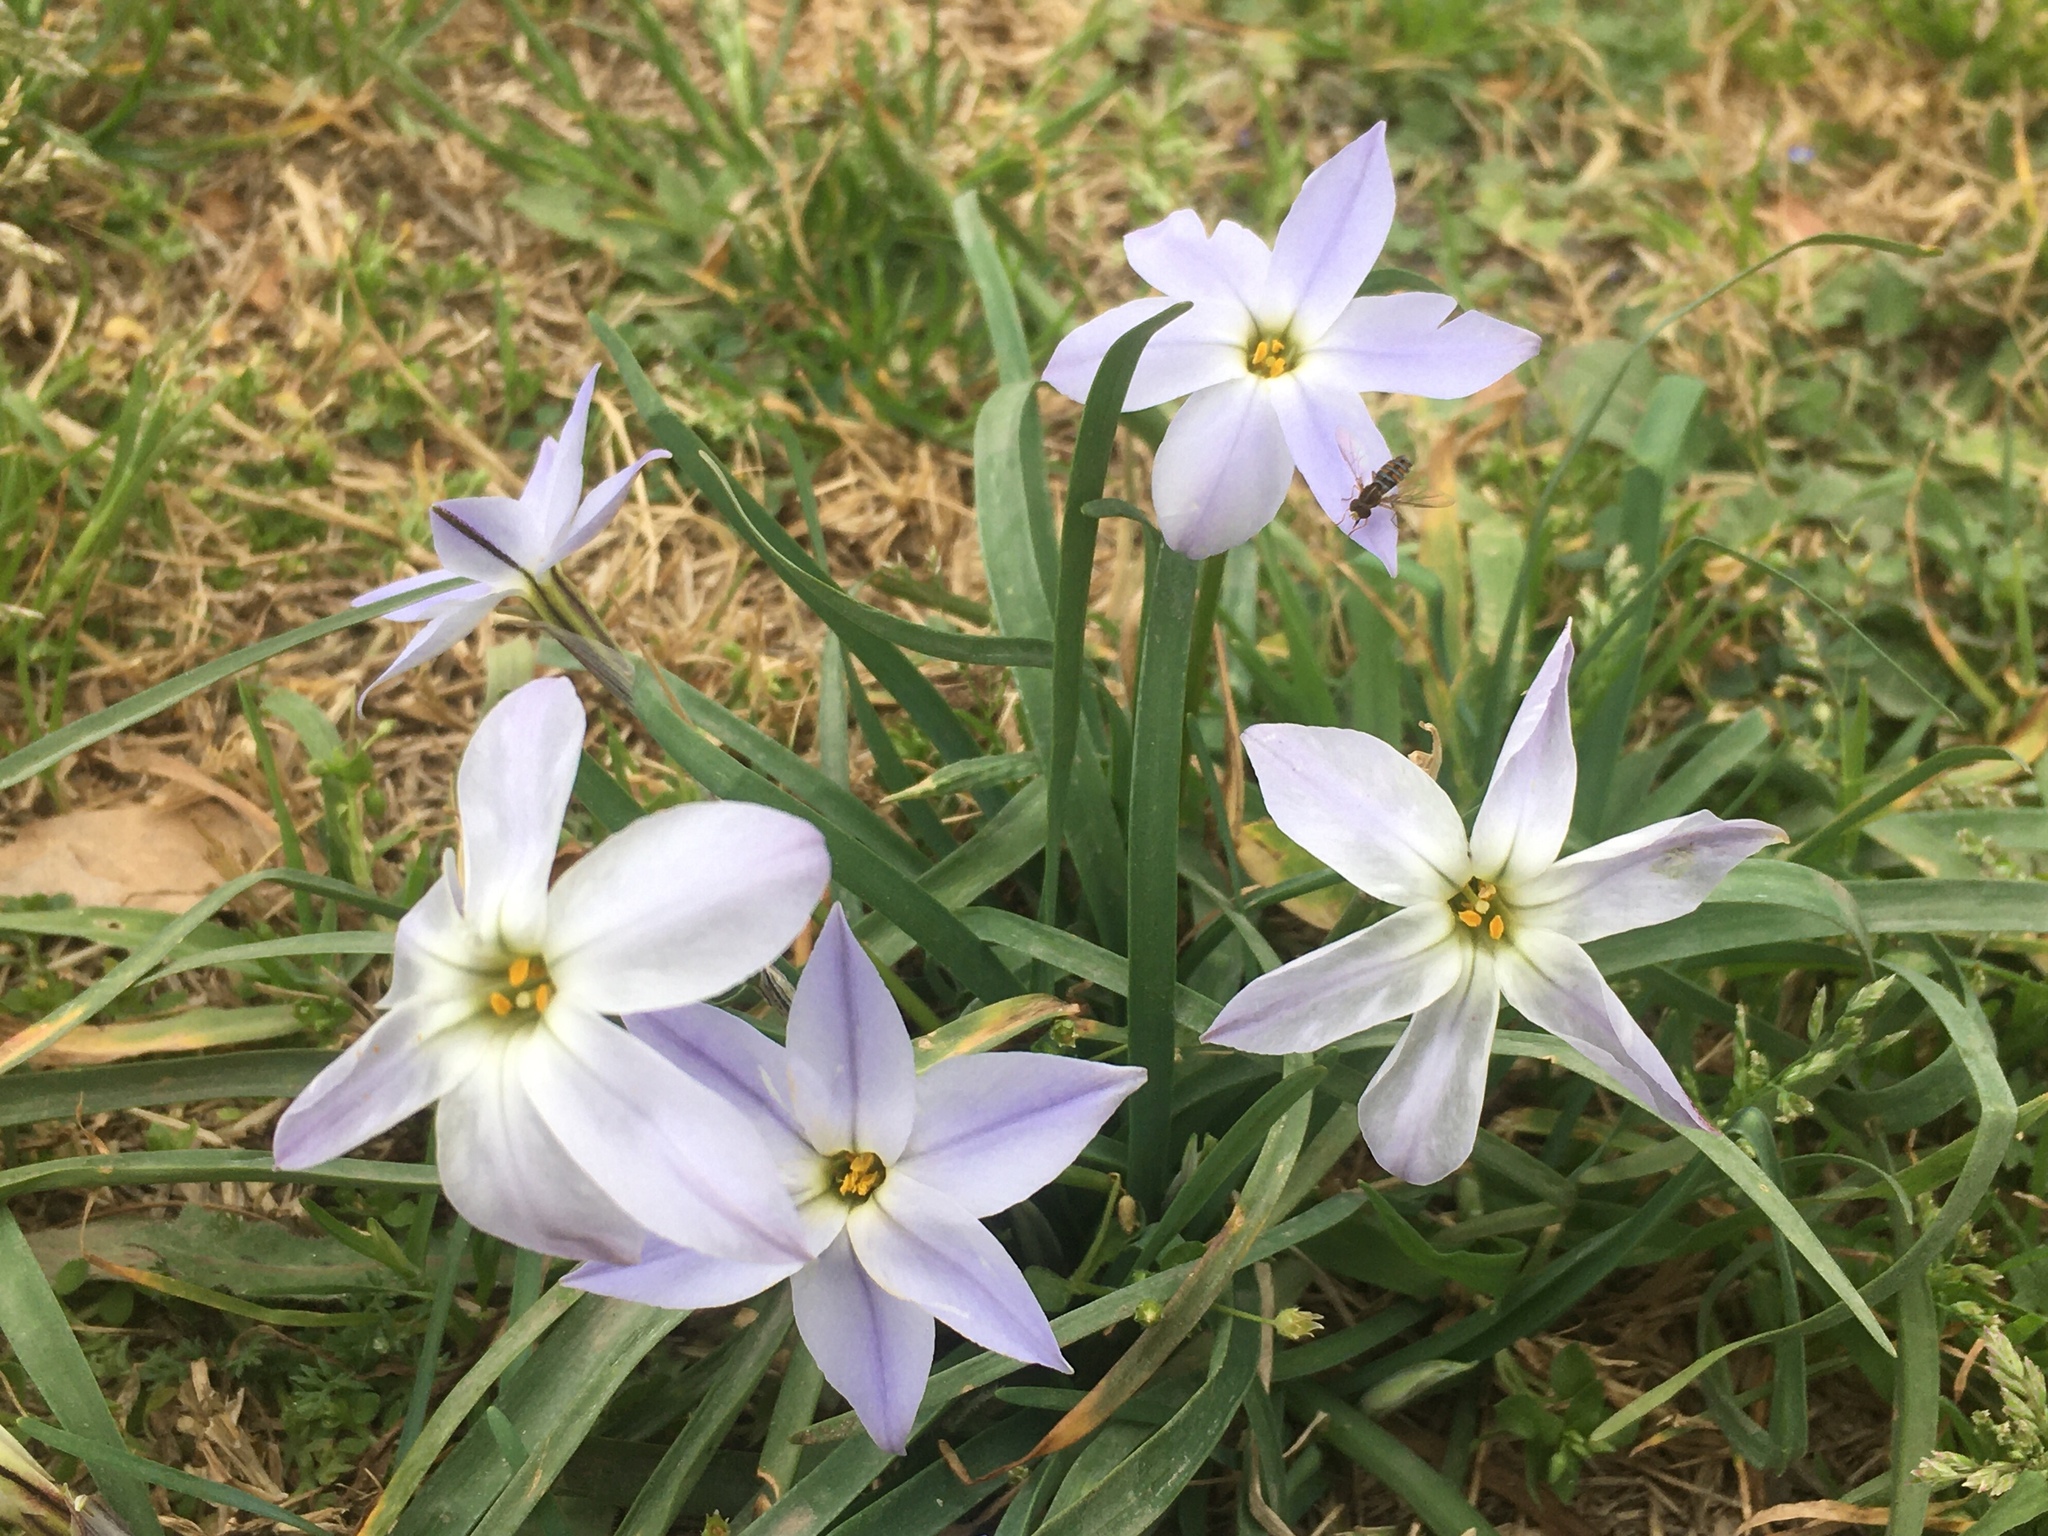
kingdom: Plantae
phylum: Tracheophyta
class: Liliopsida
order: Asparagales
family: Amaryllidaceae
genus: Ipheion
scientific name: Ipheion uniflorum
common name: Spring starflower
